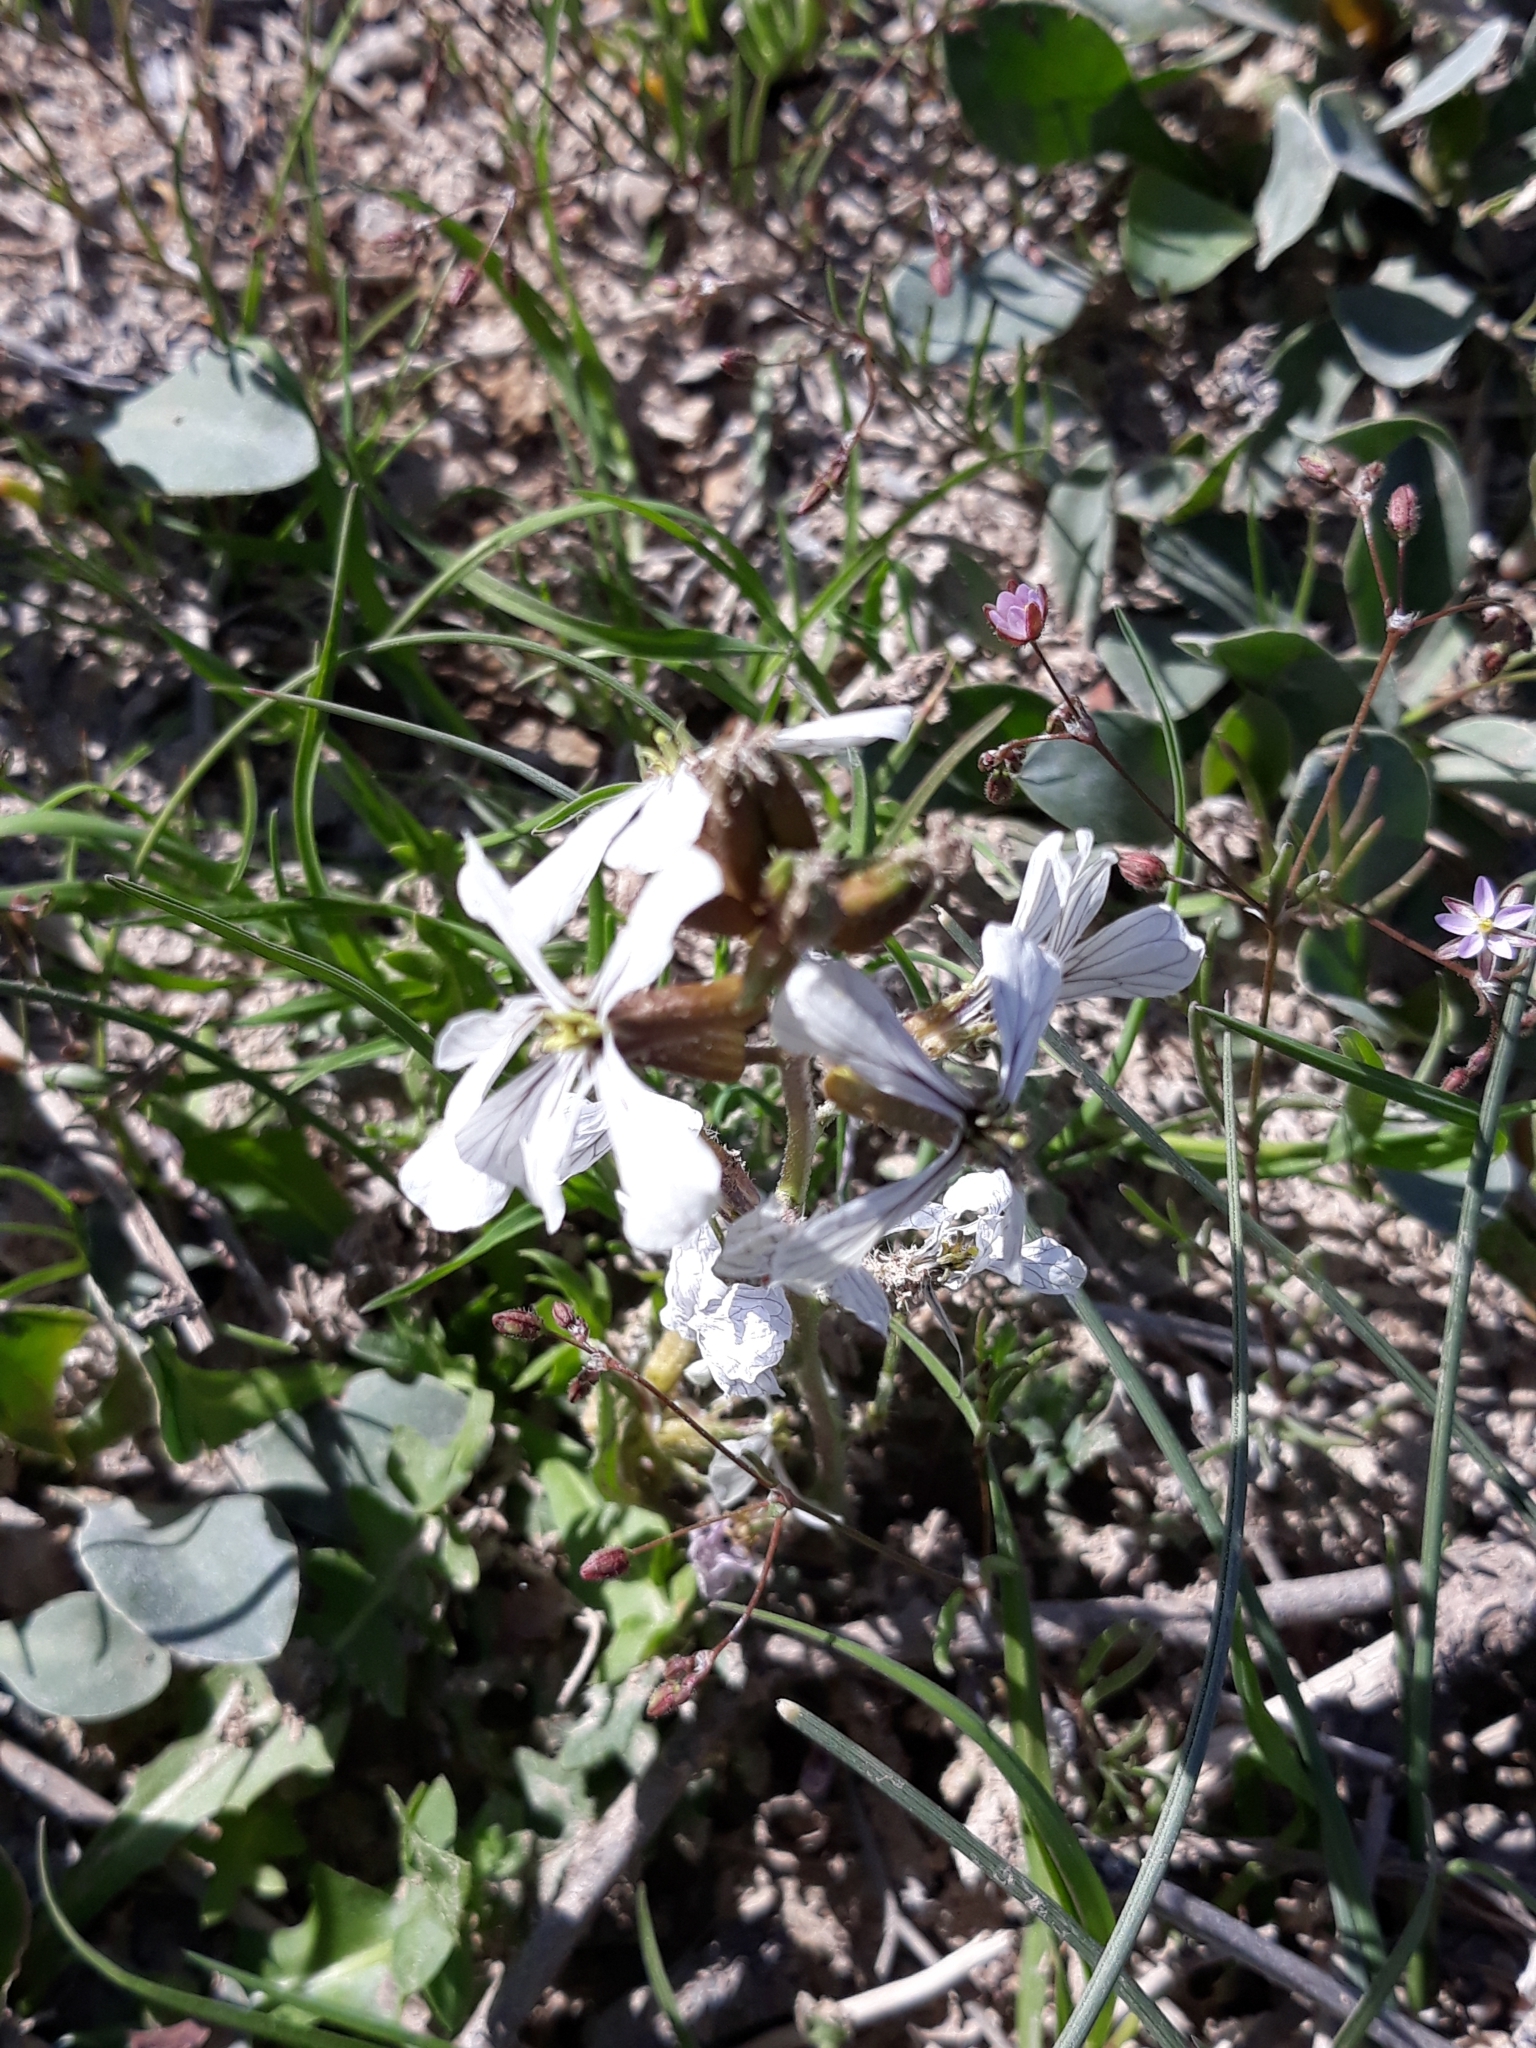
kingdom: Plantae
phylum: Tracheophyta
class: Magnoliopsida
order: Brassicales
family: Brassicaceae
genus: Eruca
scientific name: Eruca vesicaria
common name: Garden rocket
